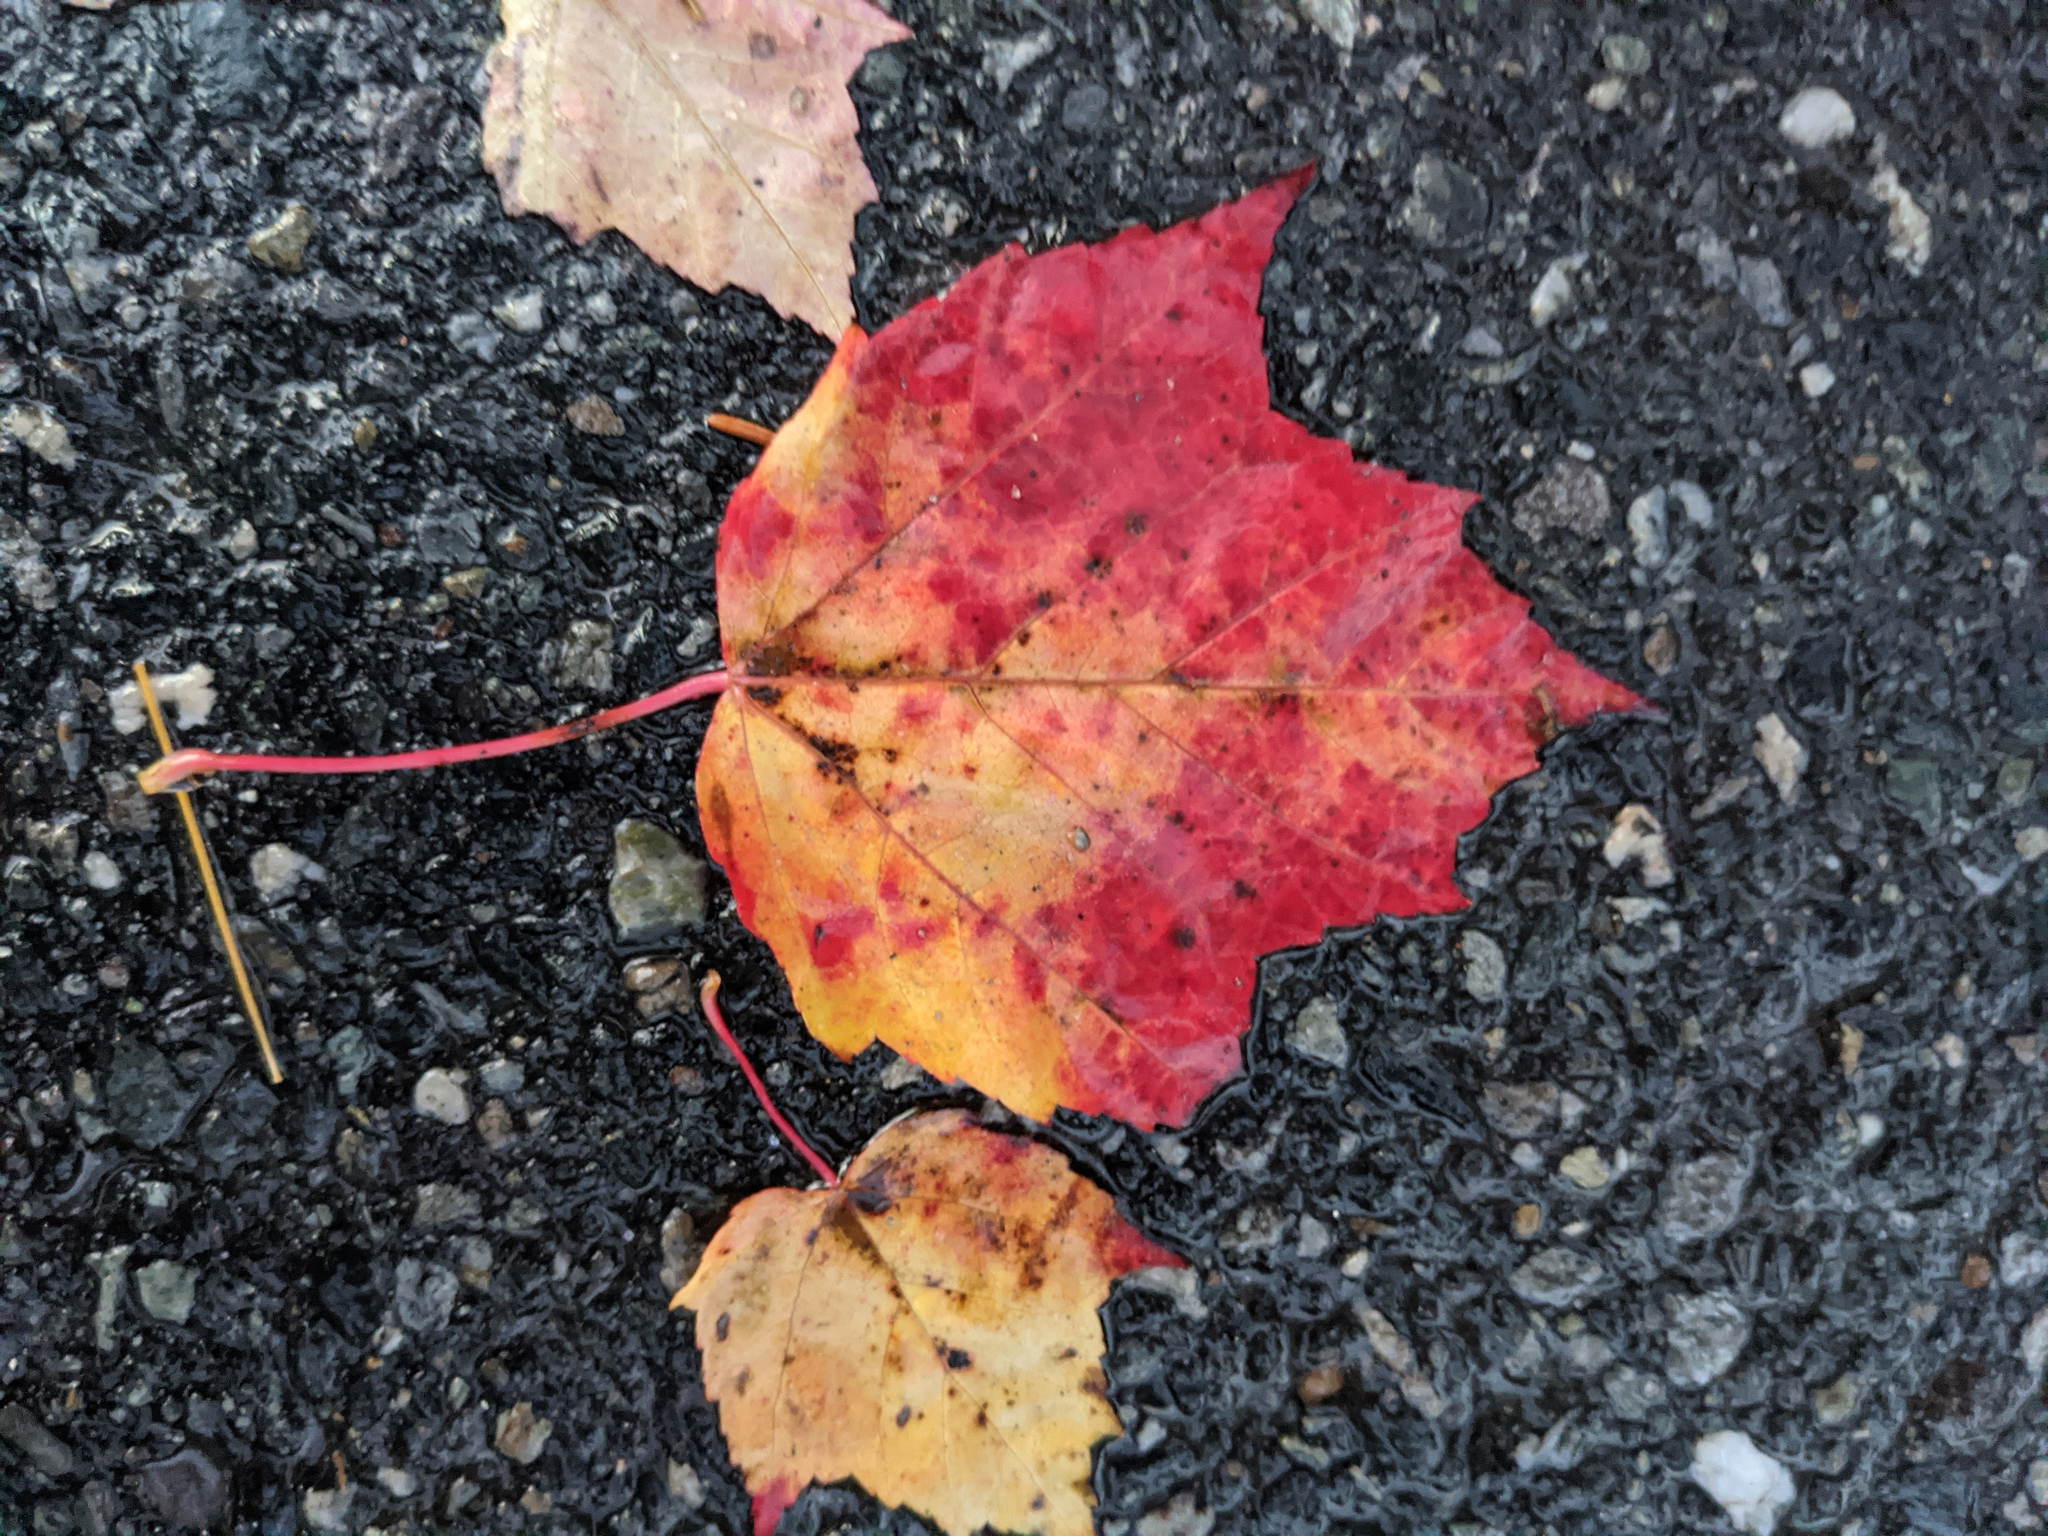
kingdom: Plantae
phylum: Tracheophyta
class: Magnoliopsida
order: Sapindales
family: Sapindaceae
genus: Acer
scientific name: Acer rubrum
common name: Red maple
